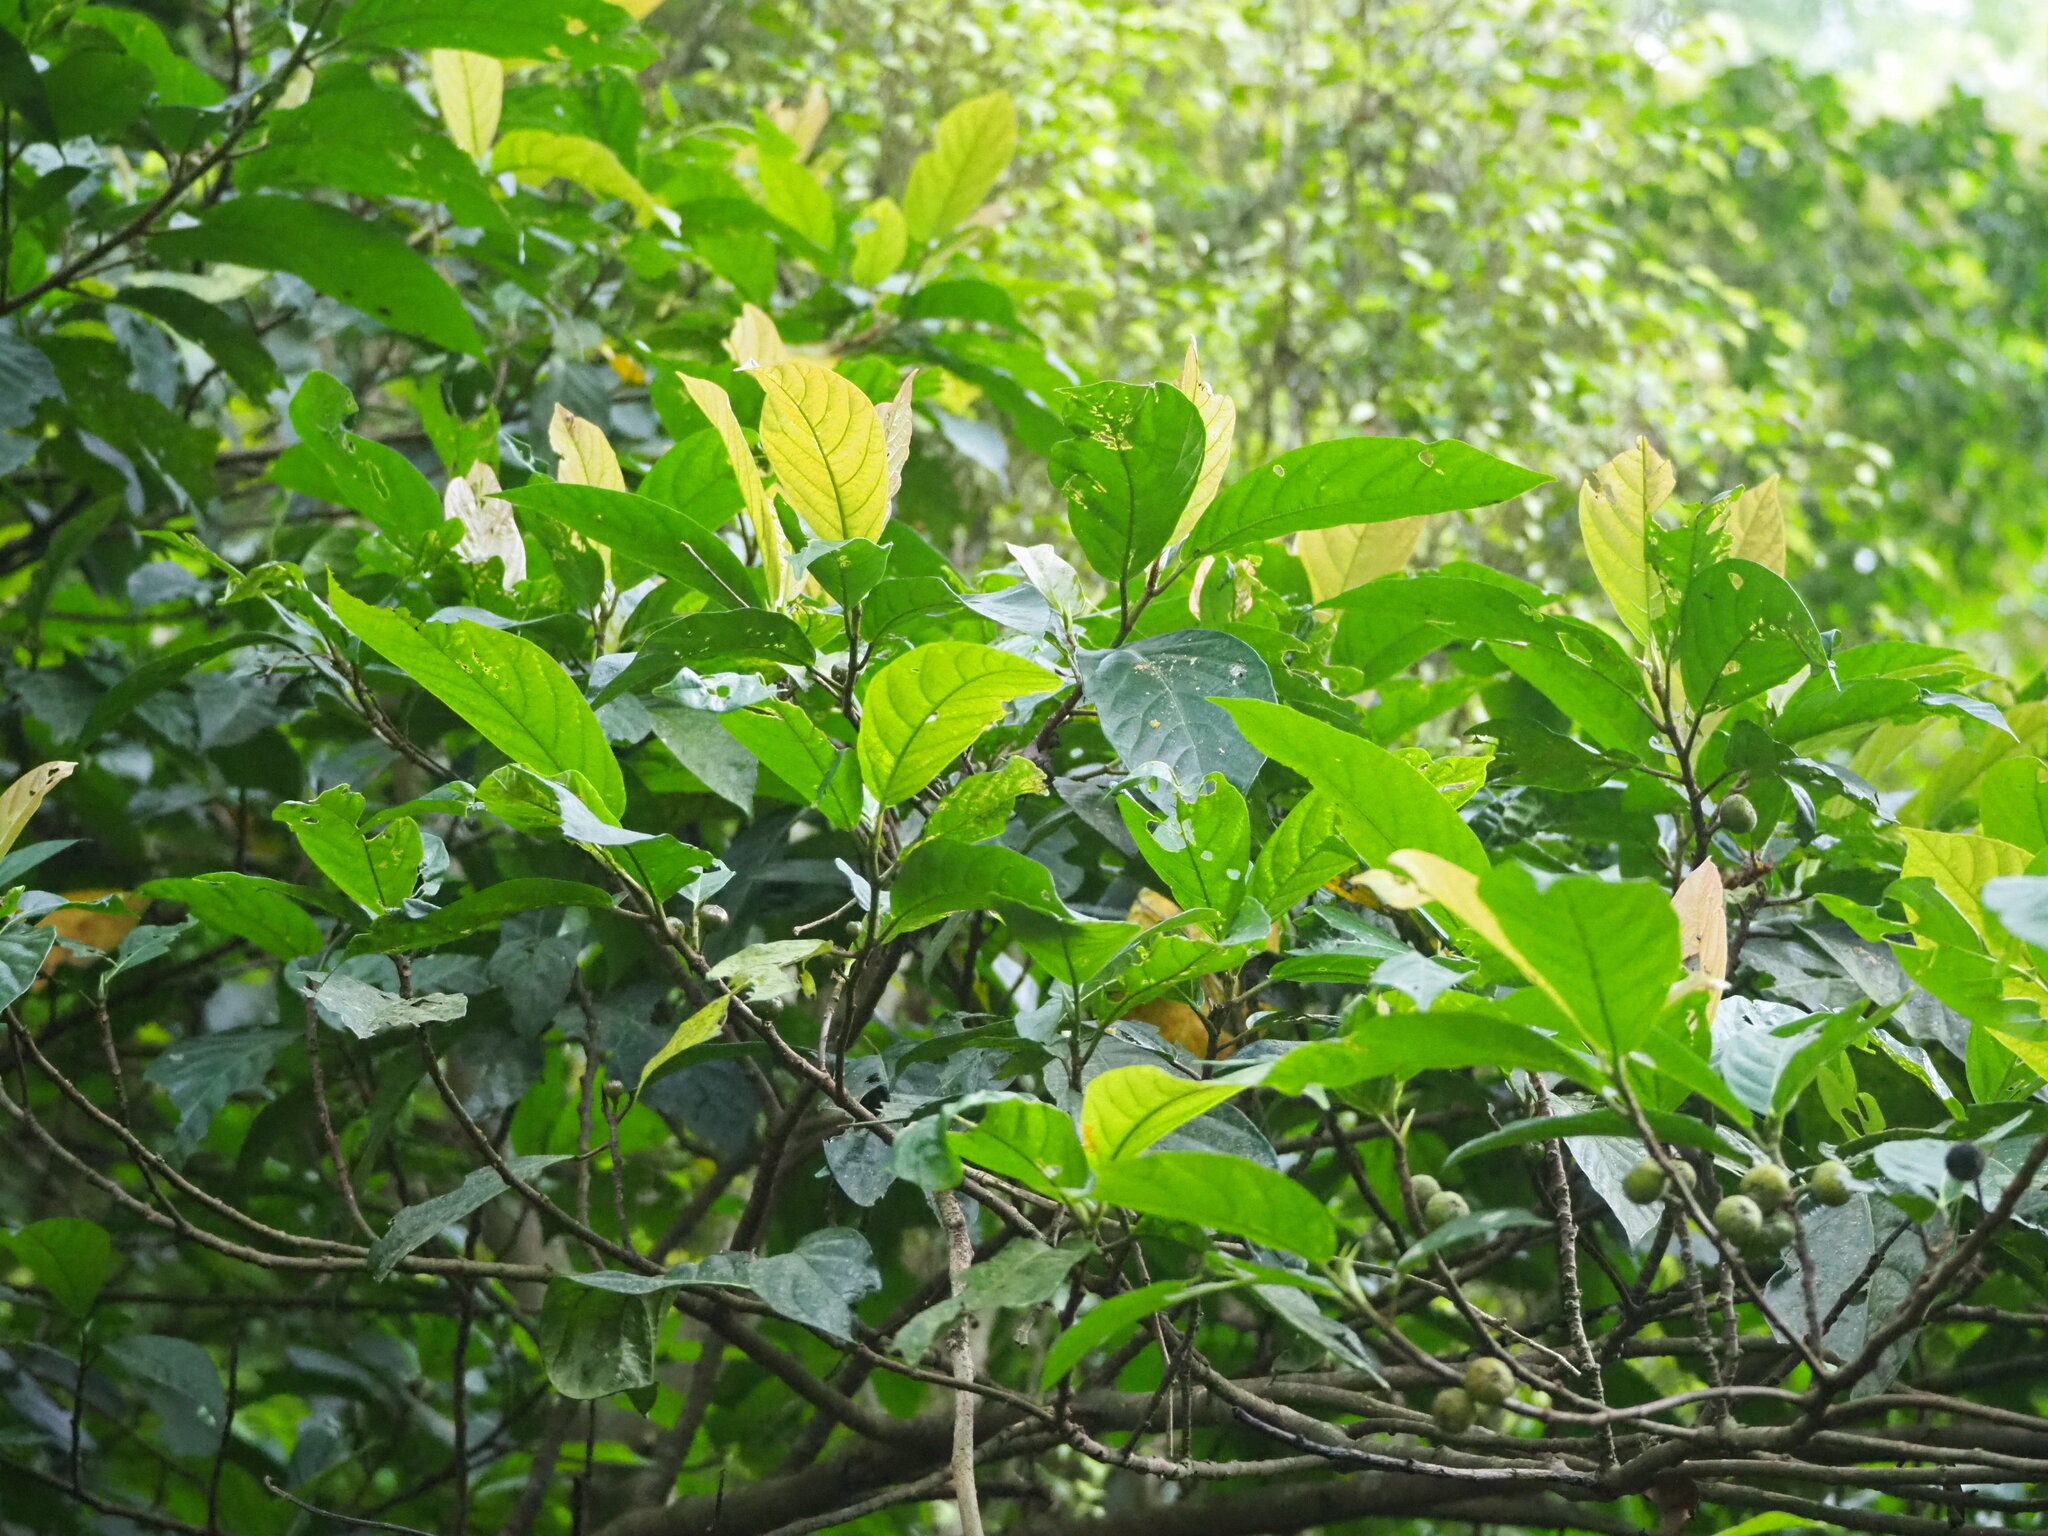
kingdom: Plantae
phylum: Tracheophyta
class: Magnoliopsida
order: Rosales
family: Moraceae
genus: Ficus
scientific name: Ficus benguetensis
